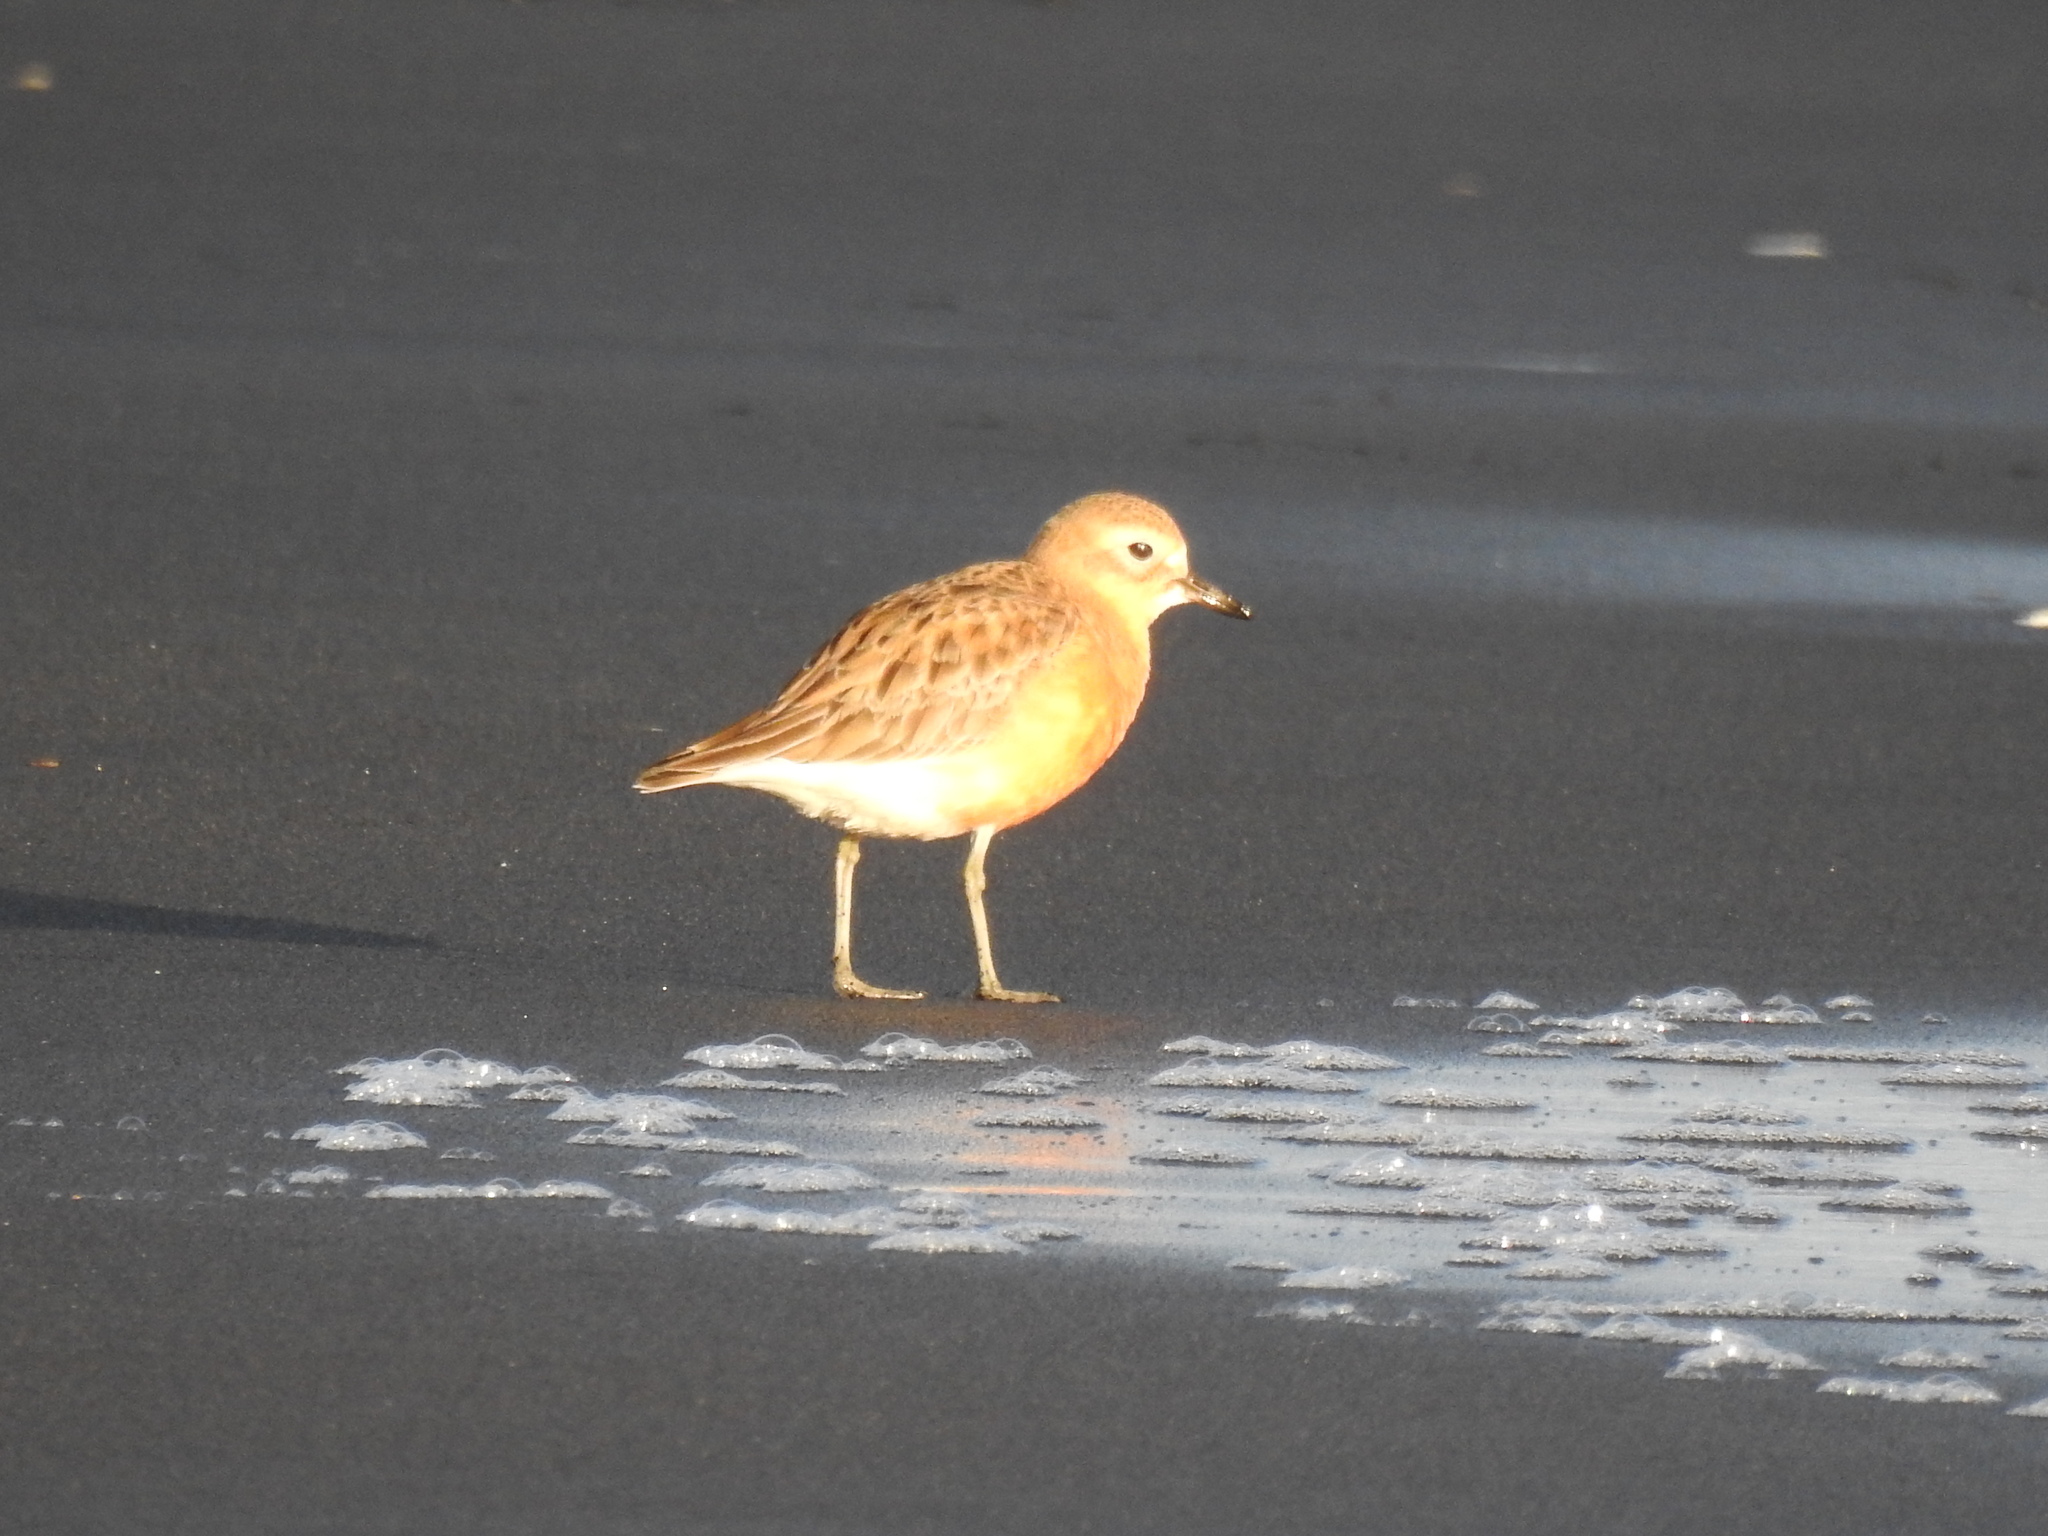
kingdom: Animalia
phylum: Chordata
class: Aves
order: Charadriiformes
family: Charadriidae
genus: Anarhynchus
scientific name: Anarhynchus
